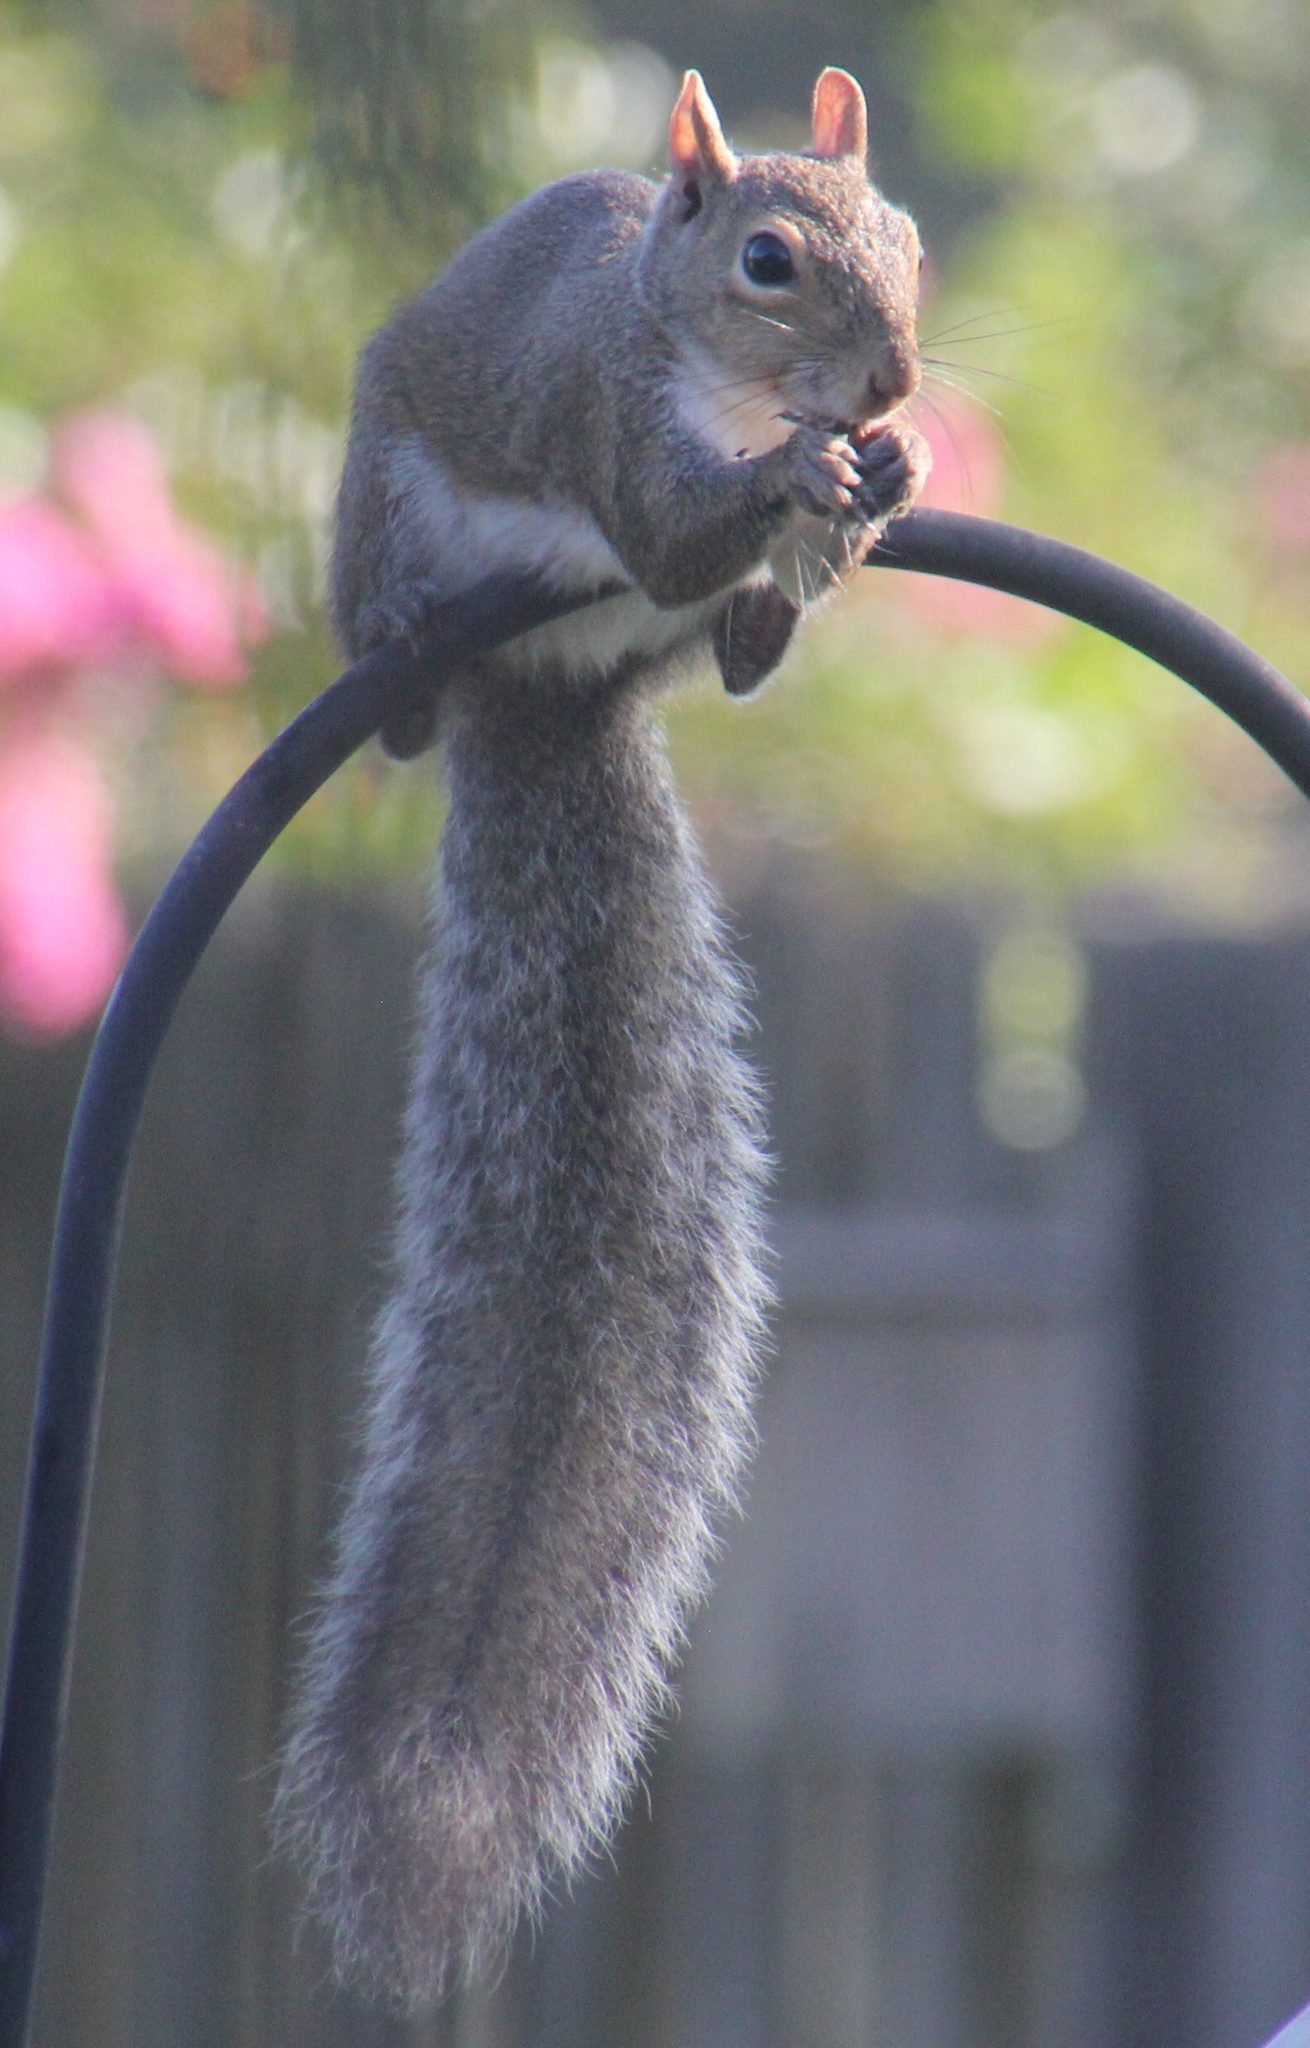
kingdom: Animalia
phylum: Chordata
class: Mammalia
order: Rodentia
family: Sciuridae
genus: Sciurus
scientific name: Sciurus carolinensis
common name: Eastern gray squirrel
